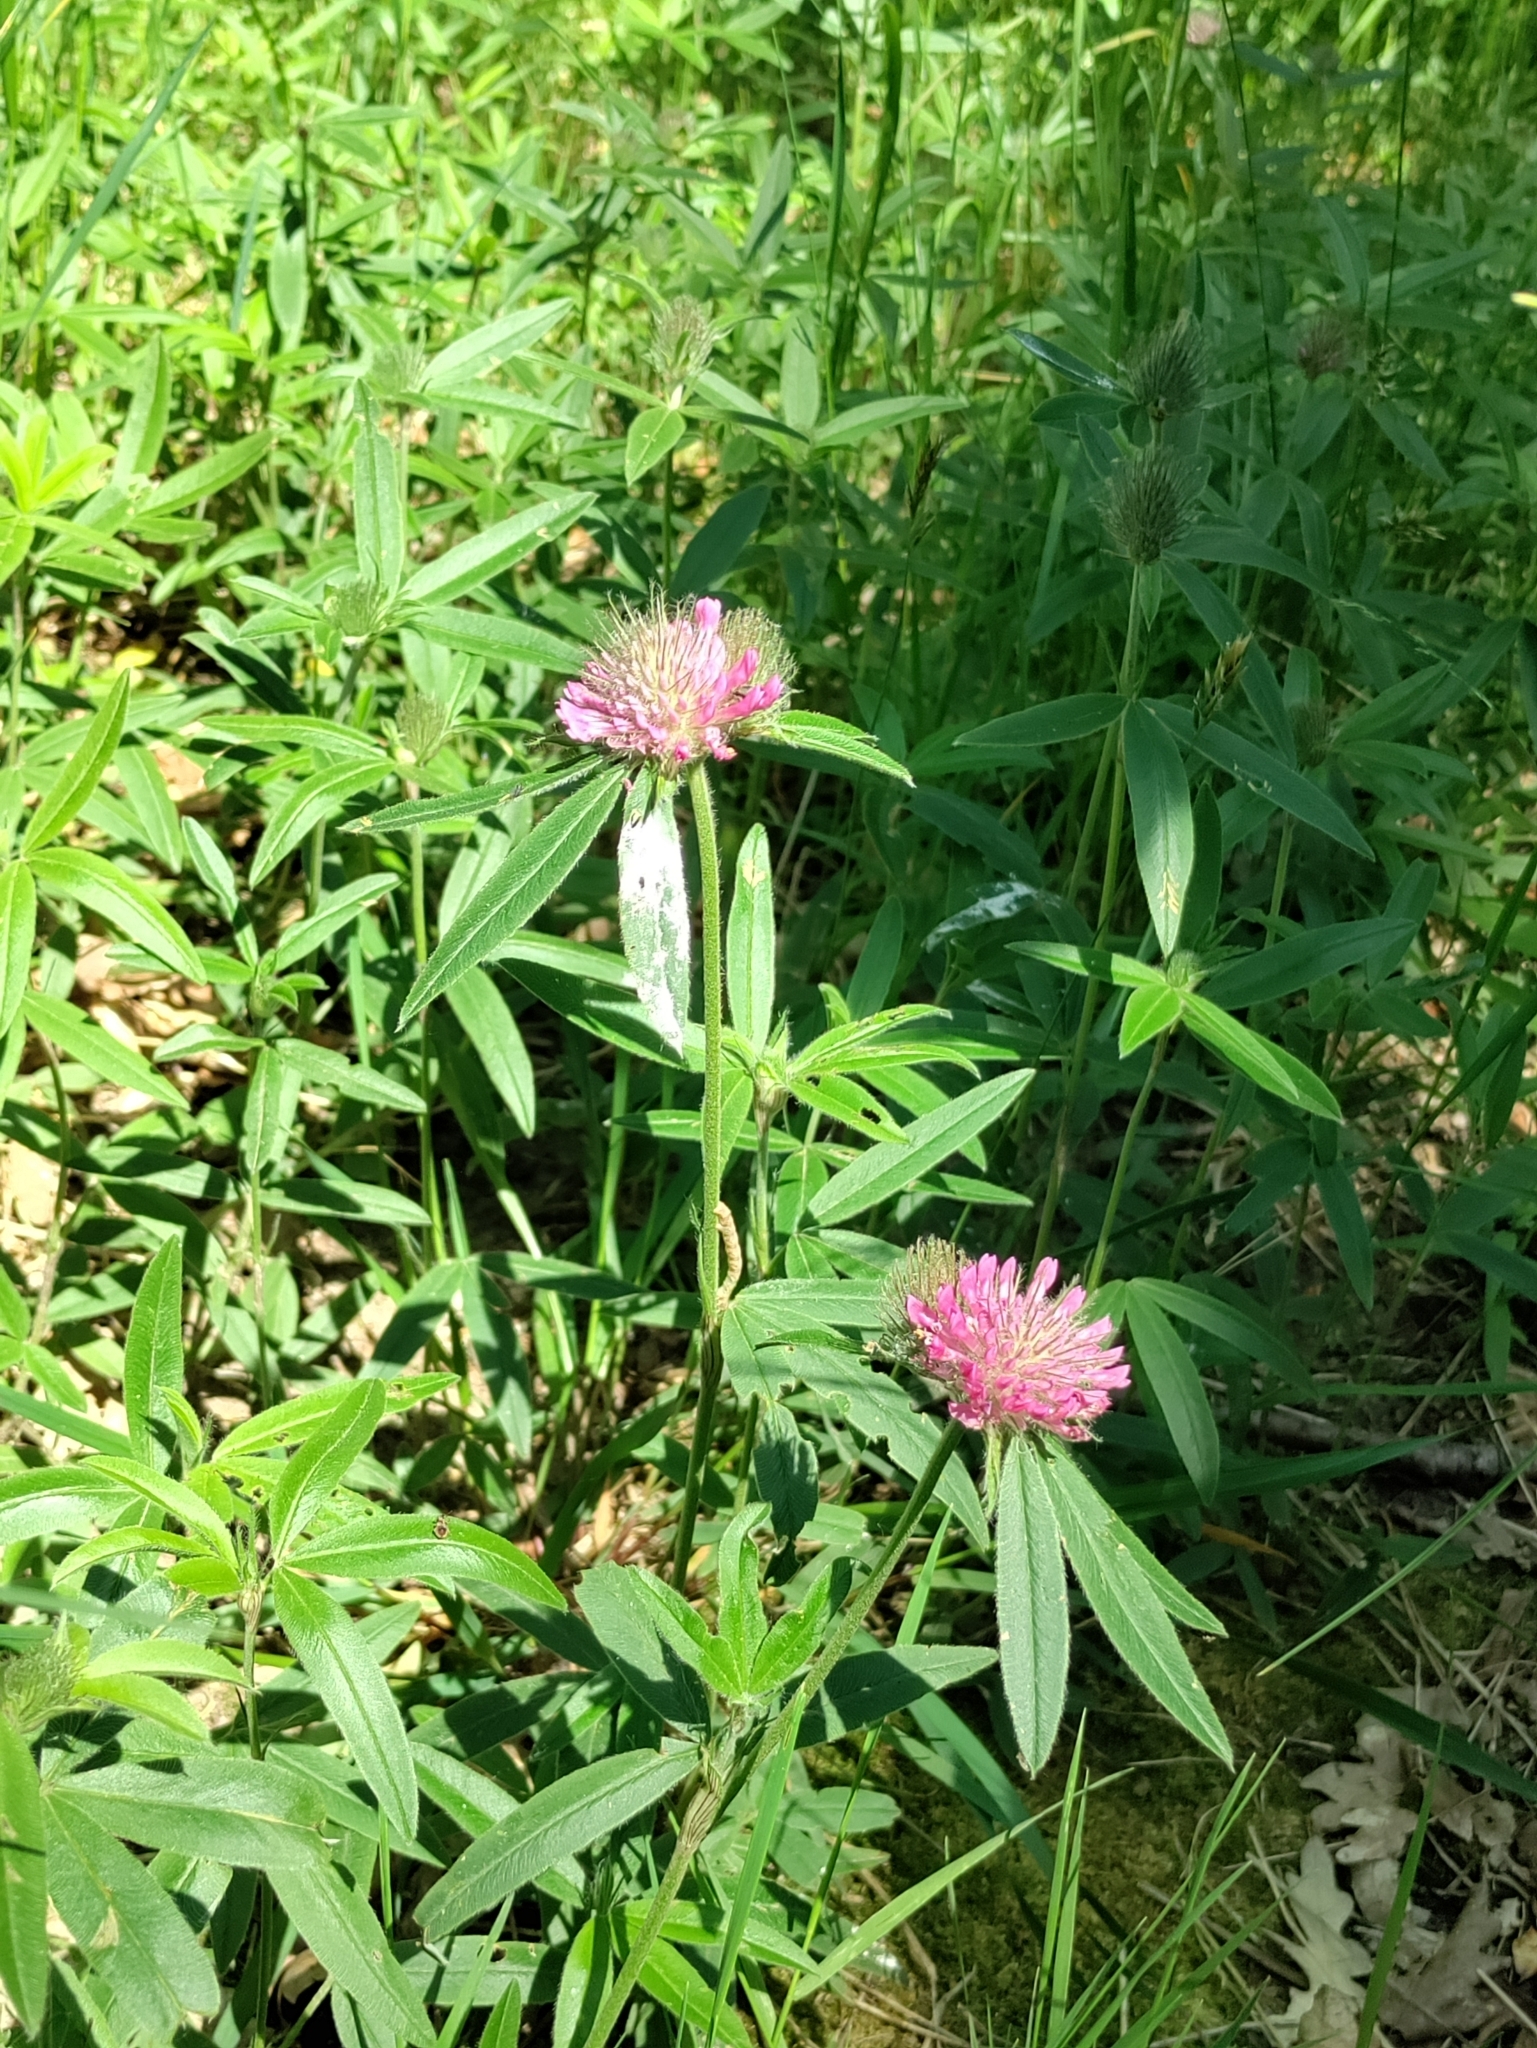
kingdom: Plantae
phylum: Tracheophyta
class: Magnoliopsida
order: Fabales
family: Fabaceae
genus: Trifolium
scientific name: Trifolium alpestre
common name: Owl-head clover
